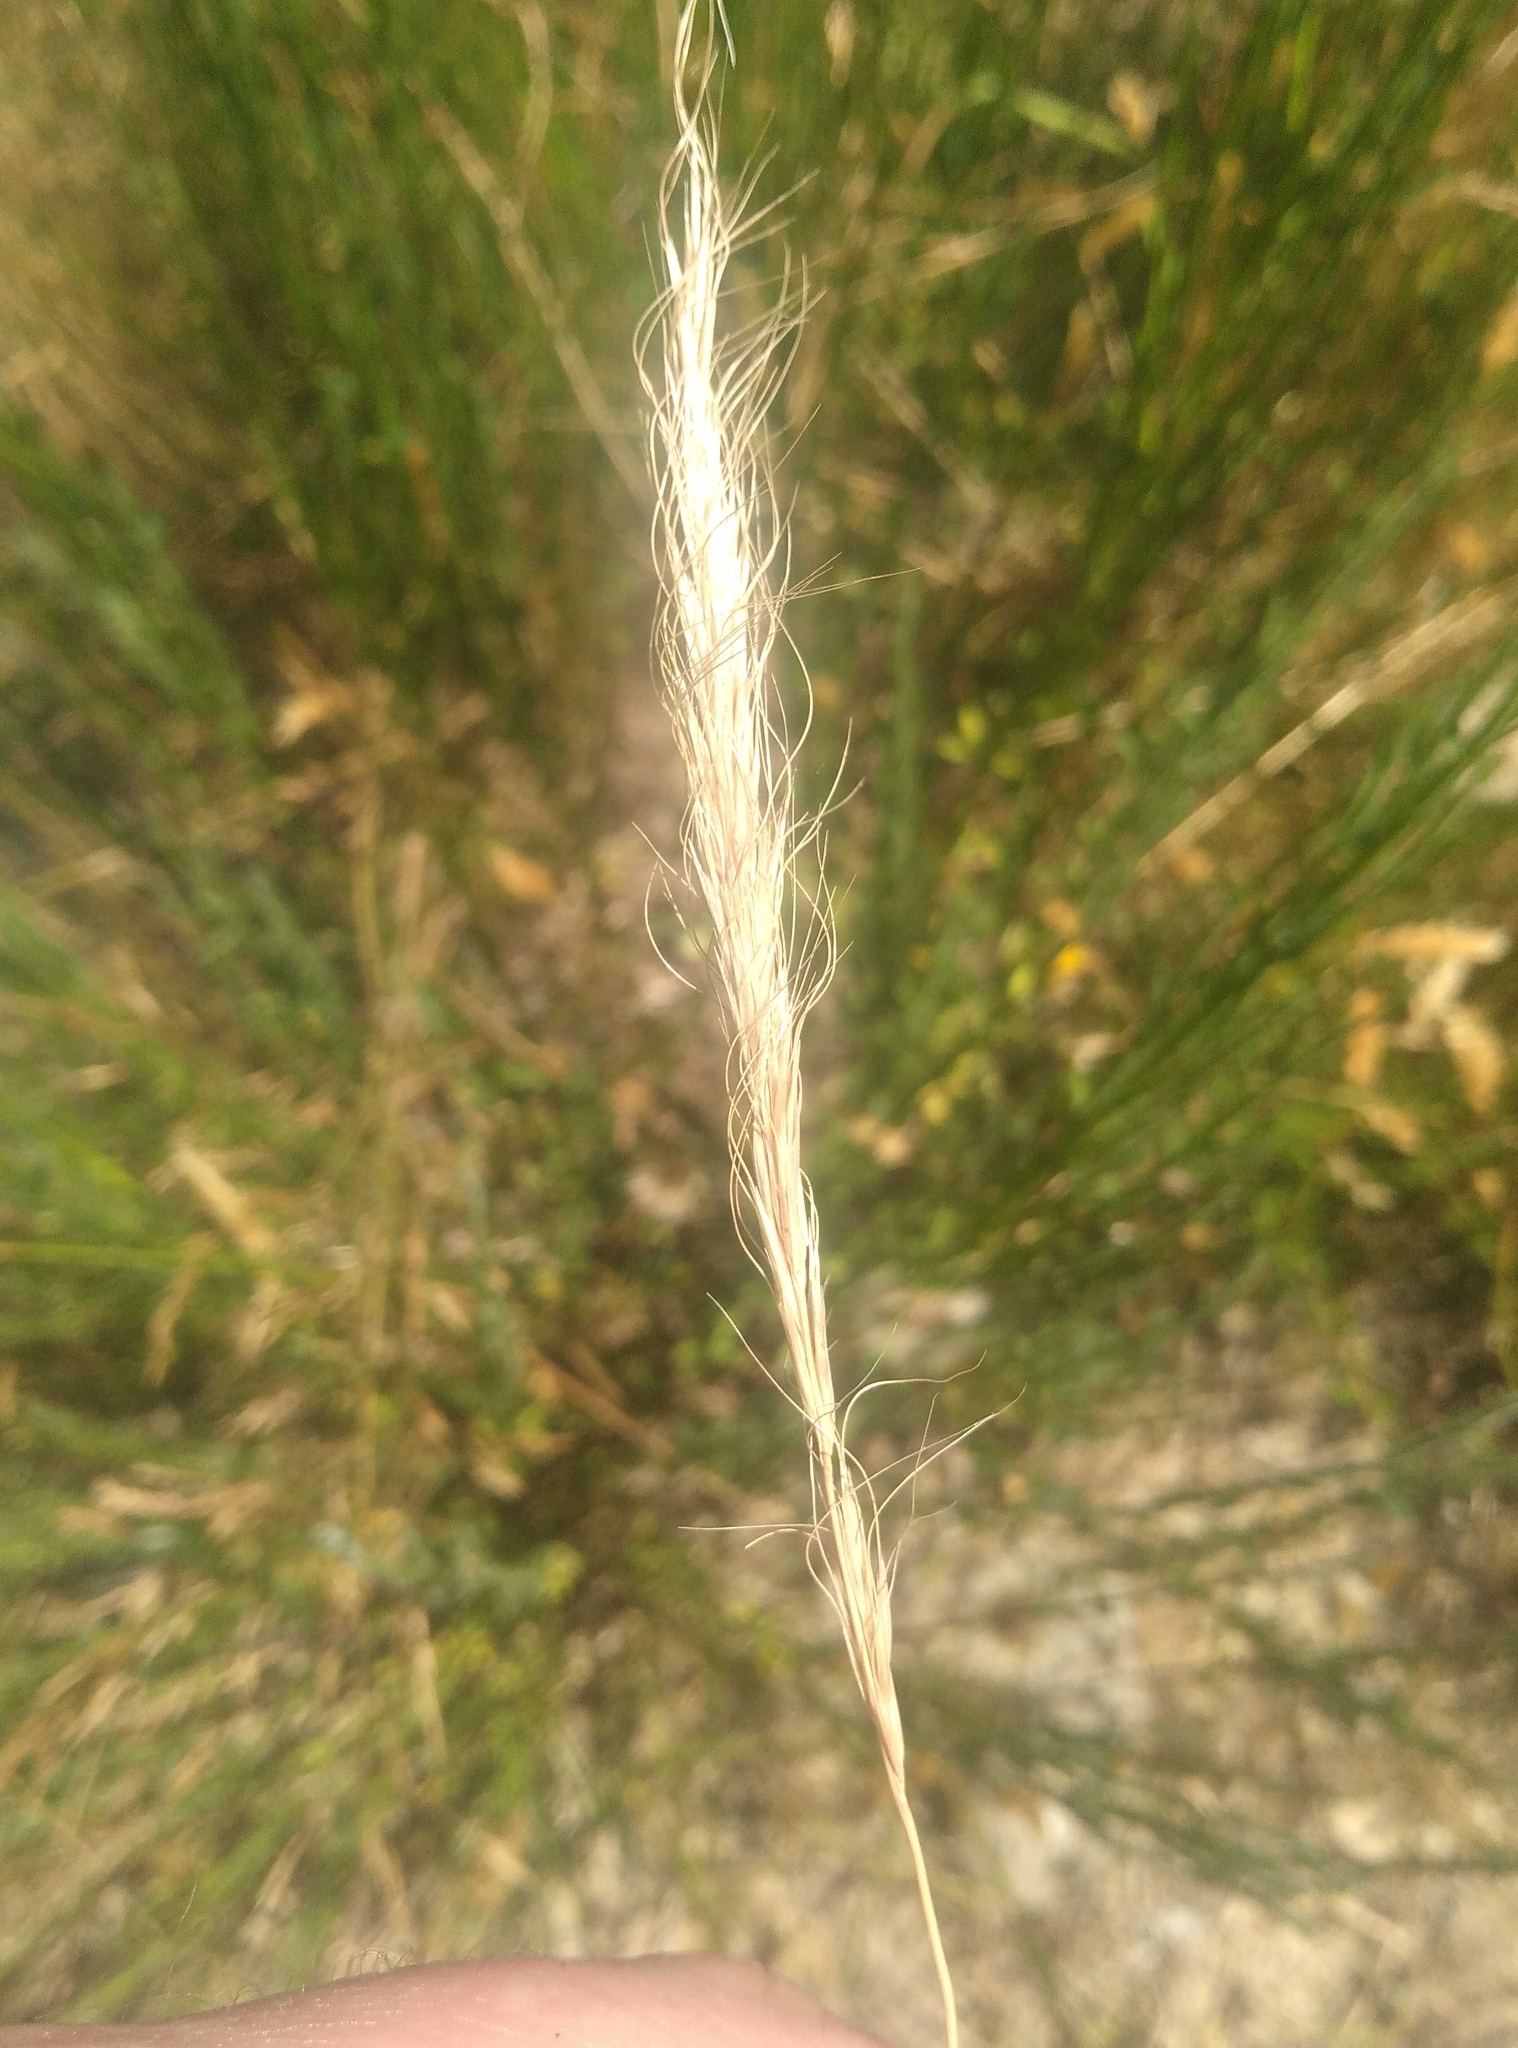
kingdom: Plantae
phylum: Tracheophyta
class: Liliopsida
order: Poales
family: Poaceae
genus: Dichelachne
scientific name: Dichelachne crinita
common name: Clovenfoot plumegrass
